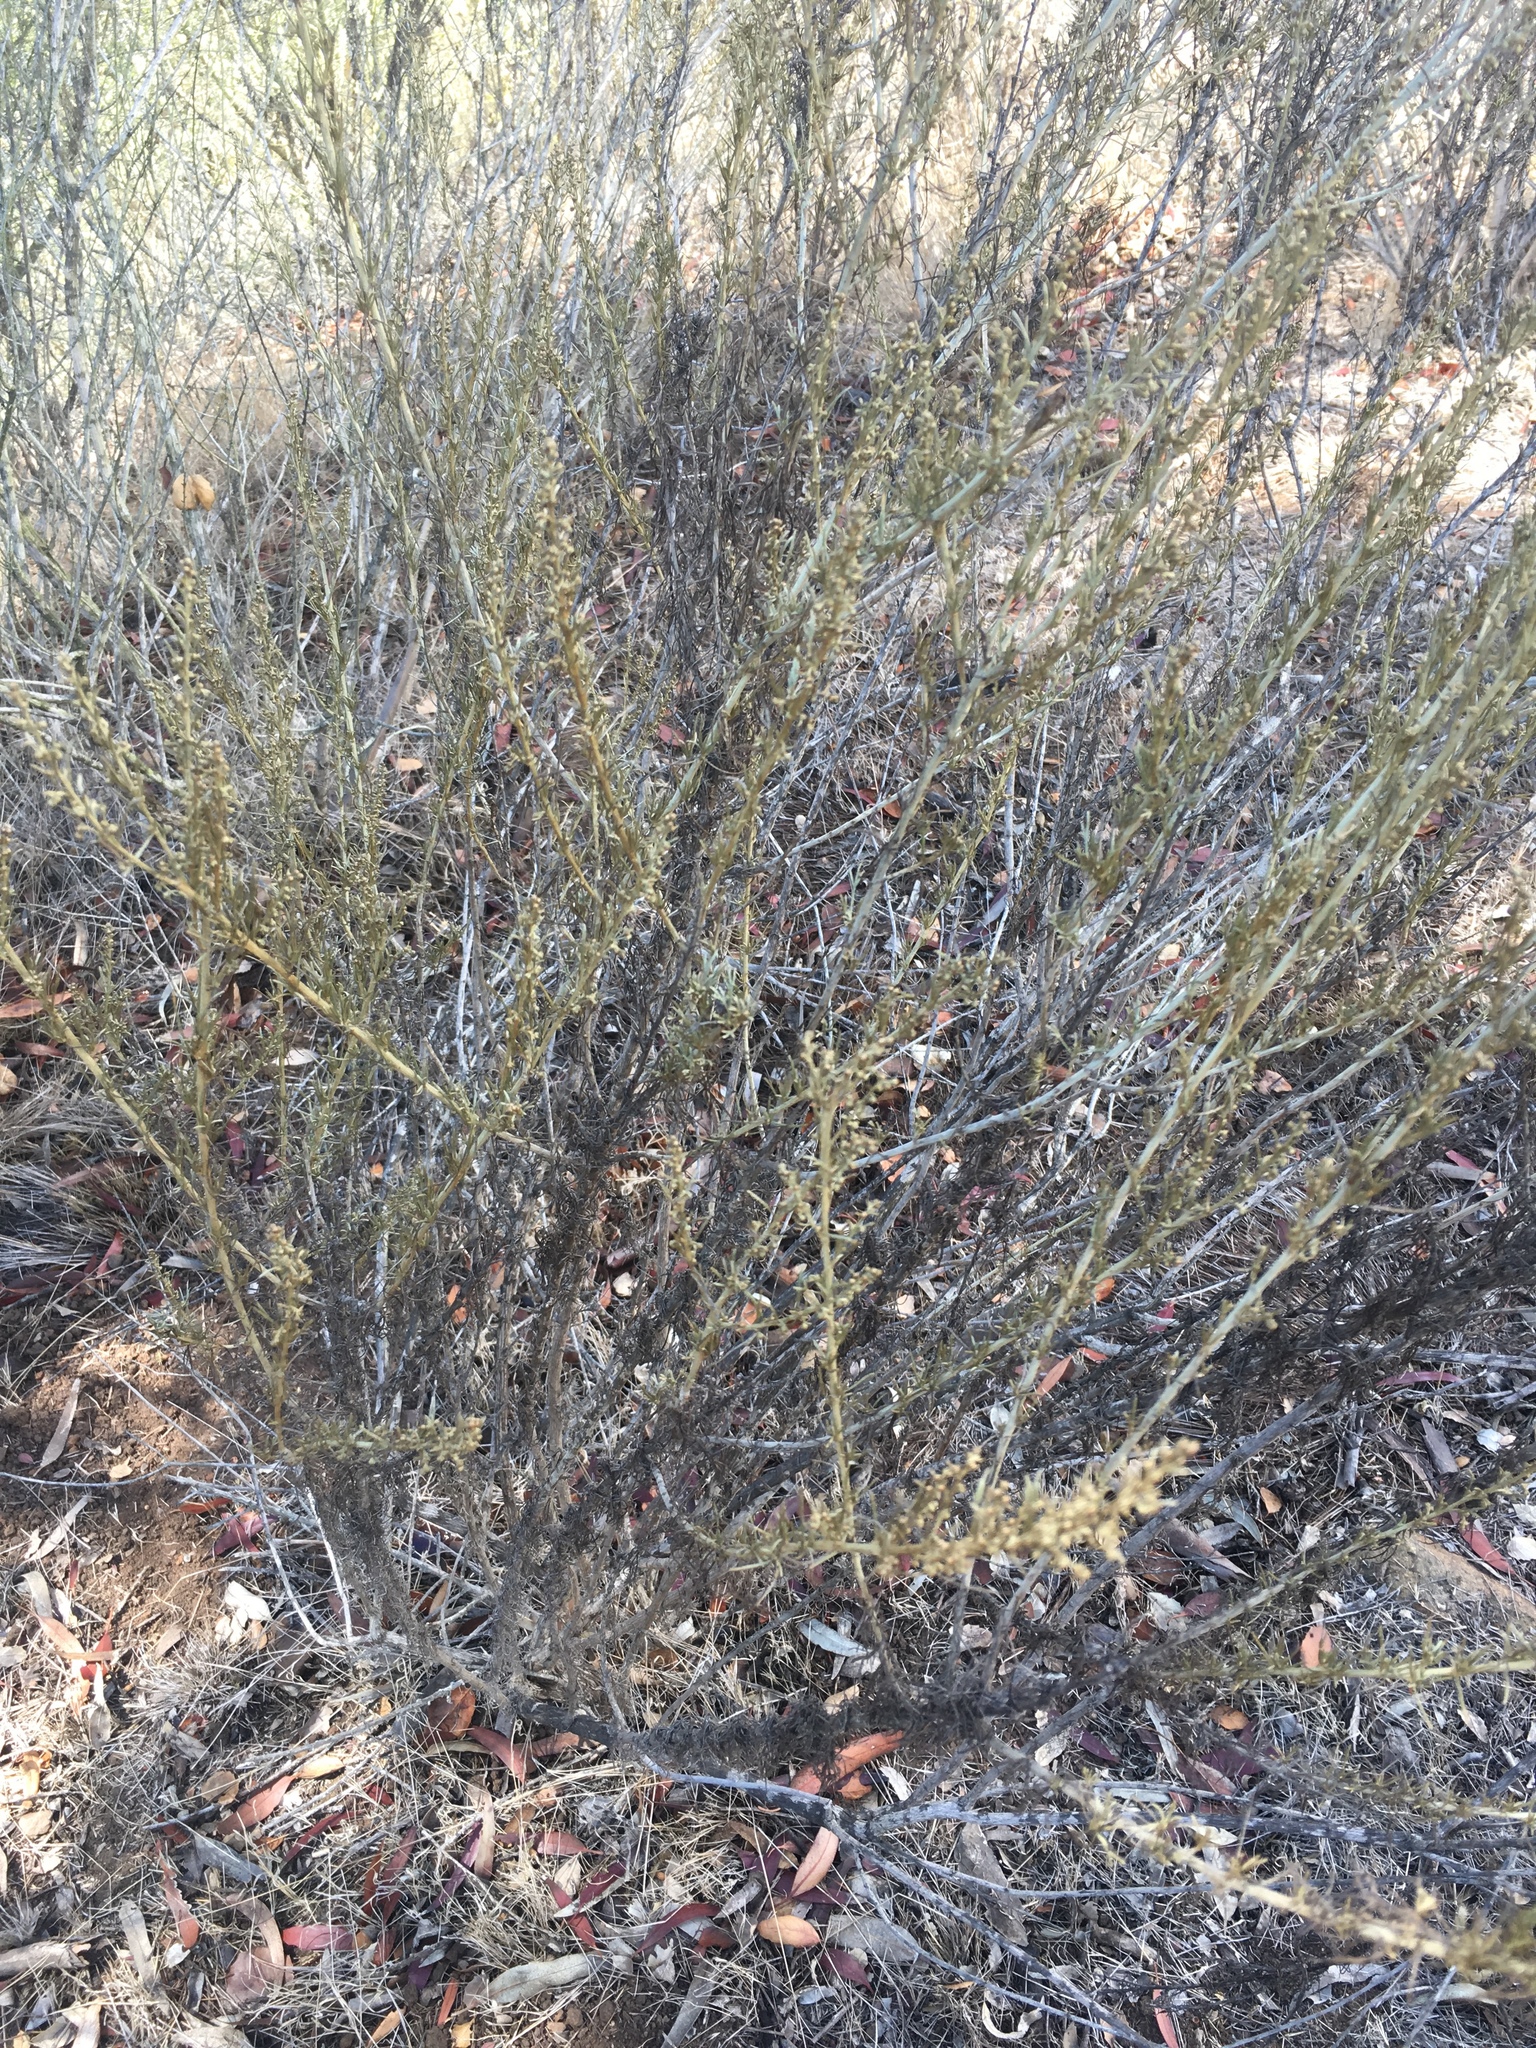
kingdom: Plantae
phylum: Tracheophyta
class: Magnoliopsida
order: Asterales
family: Asteraceae
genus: Artemisia
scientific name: Artemisia californica
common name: California sagebrush
